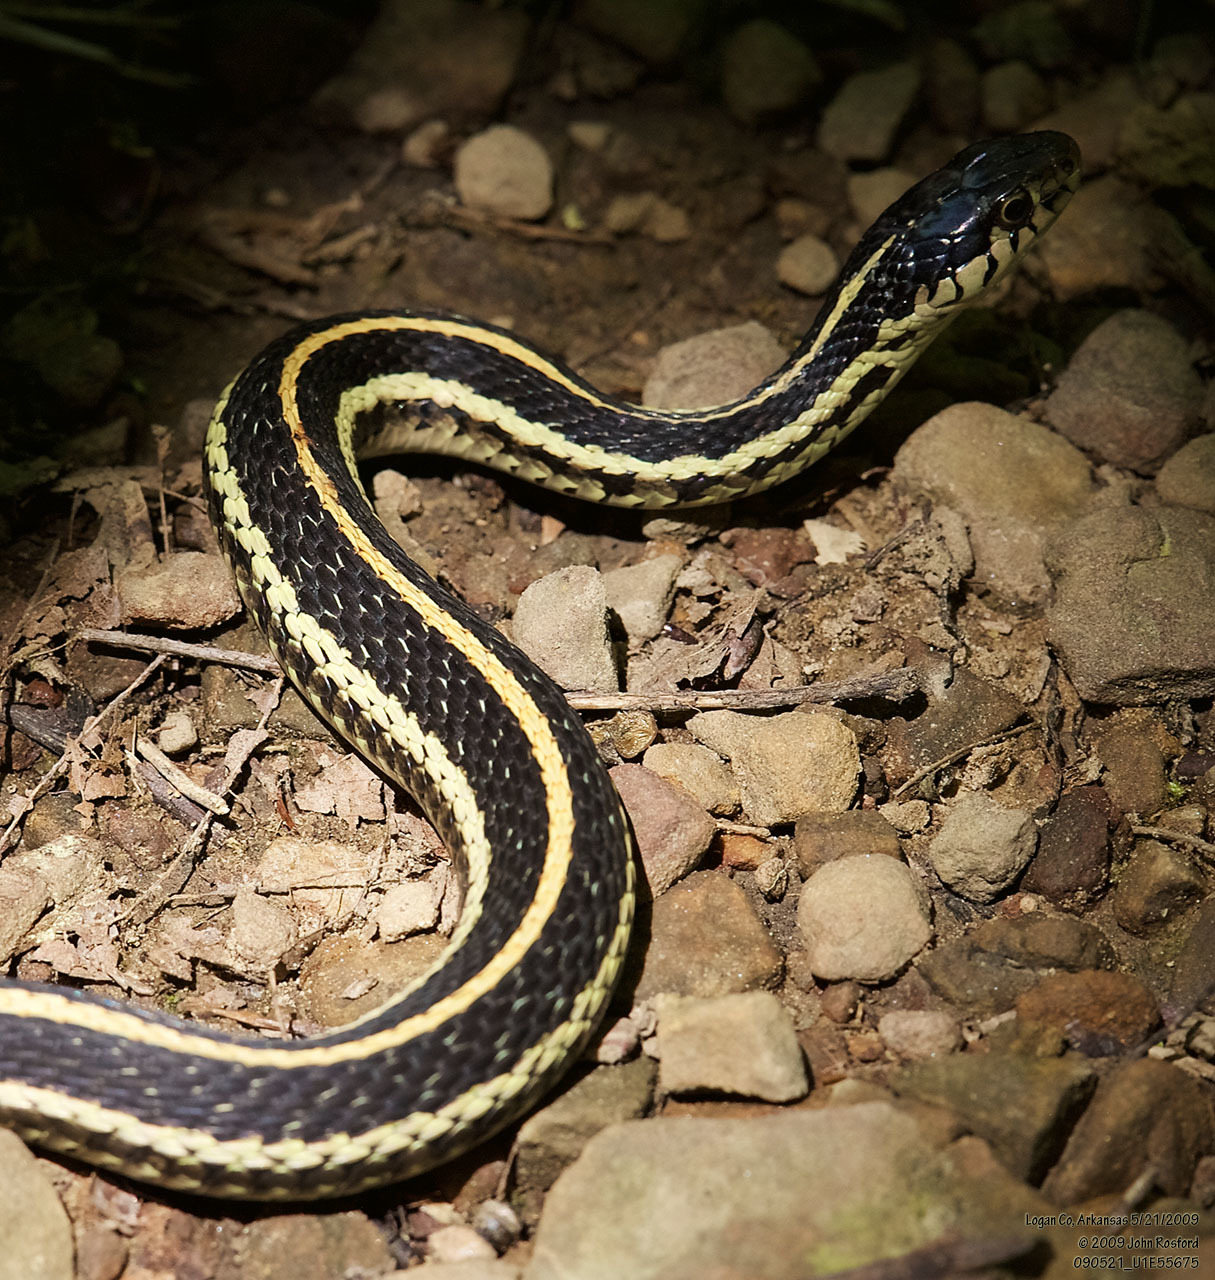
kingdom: Animalia
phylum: Chordata
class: Squamata
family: Colubridae
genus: Thamnophis
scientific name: Thamnophis sirtalis
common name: Common garter snake
